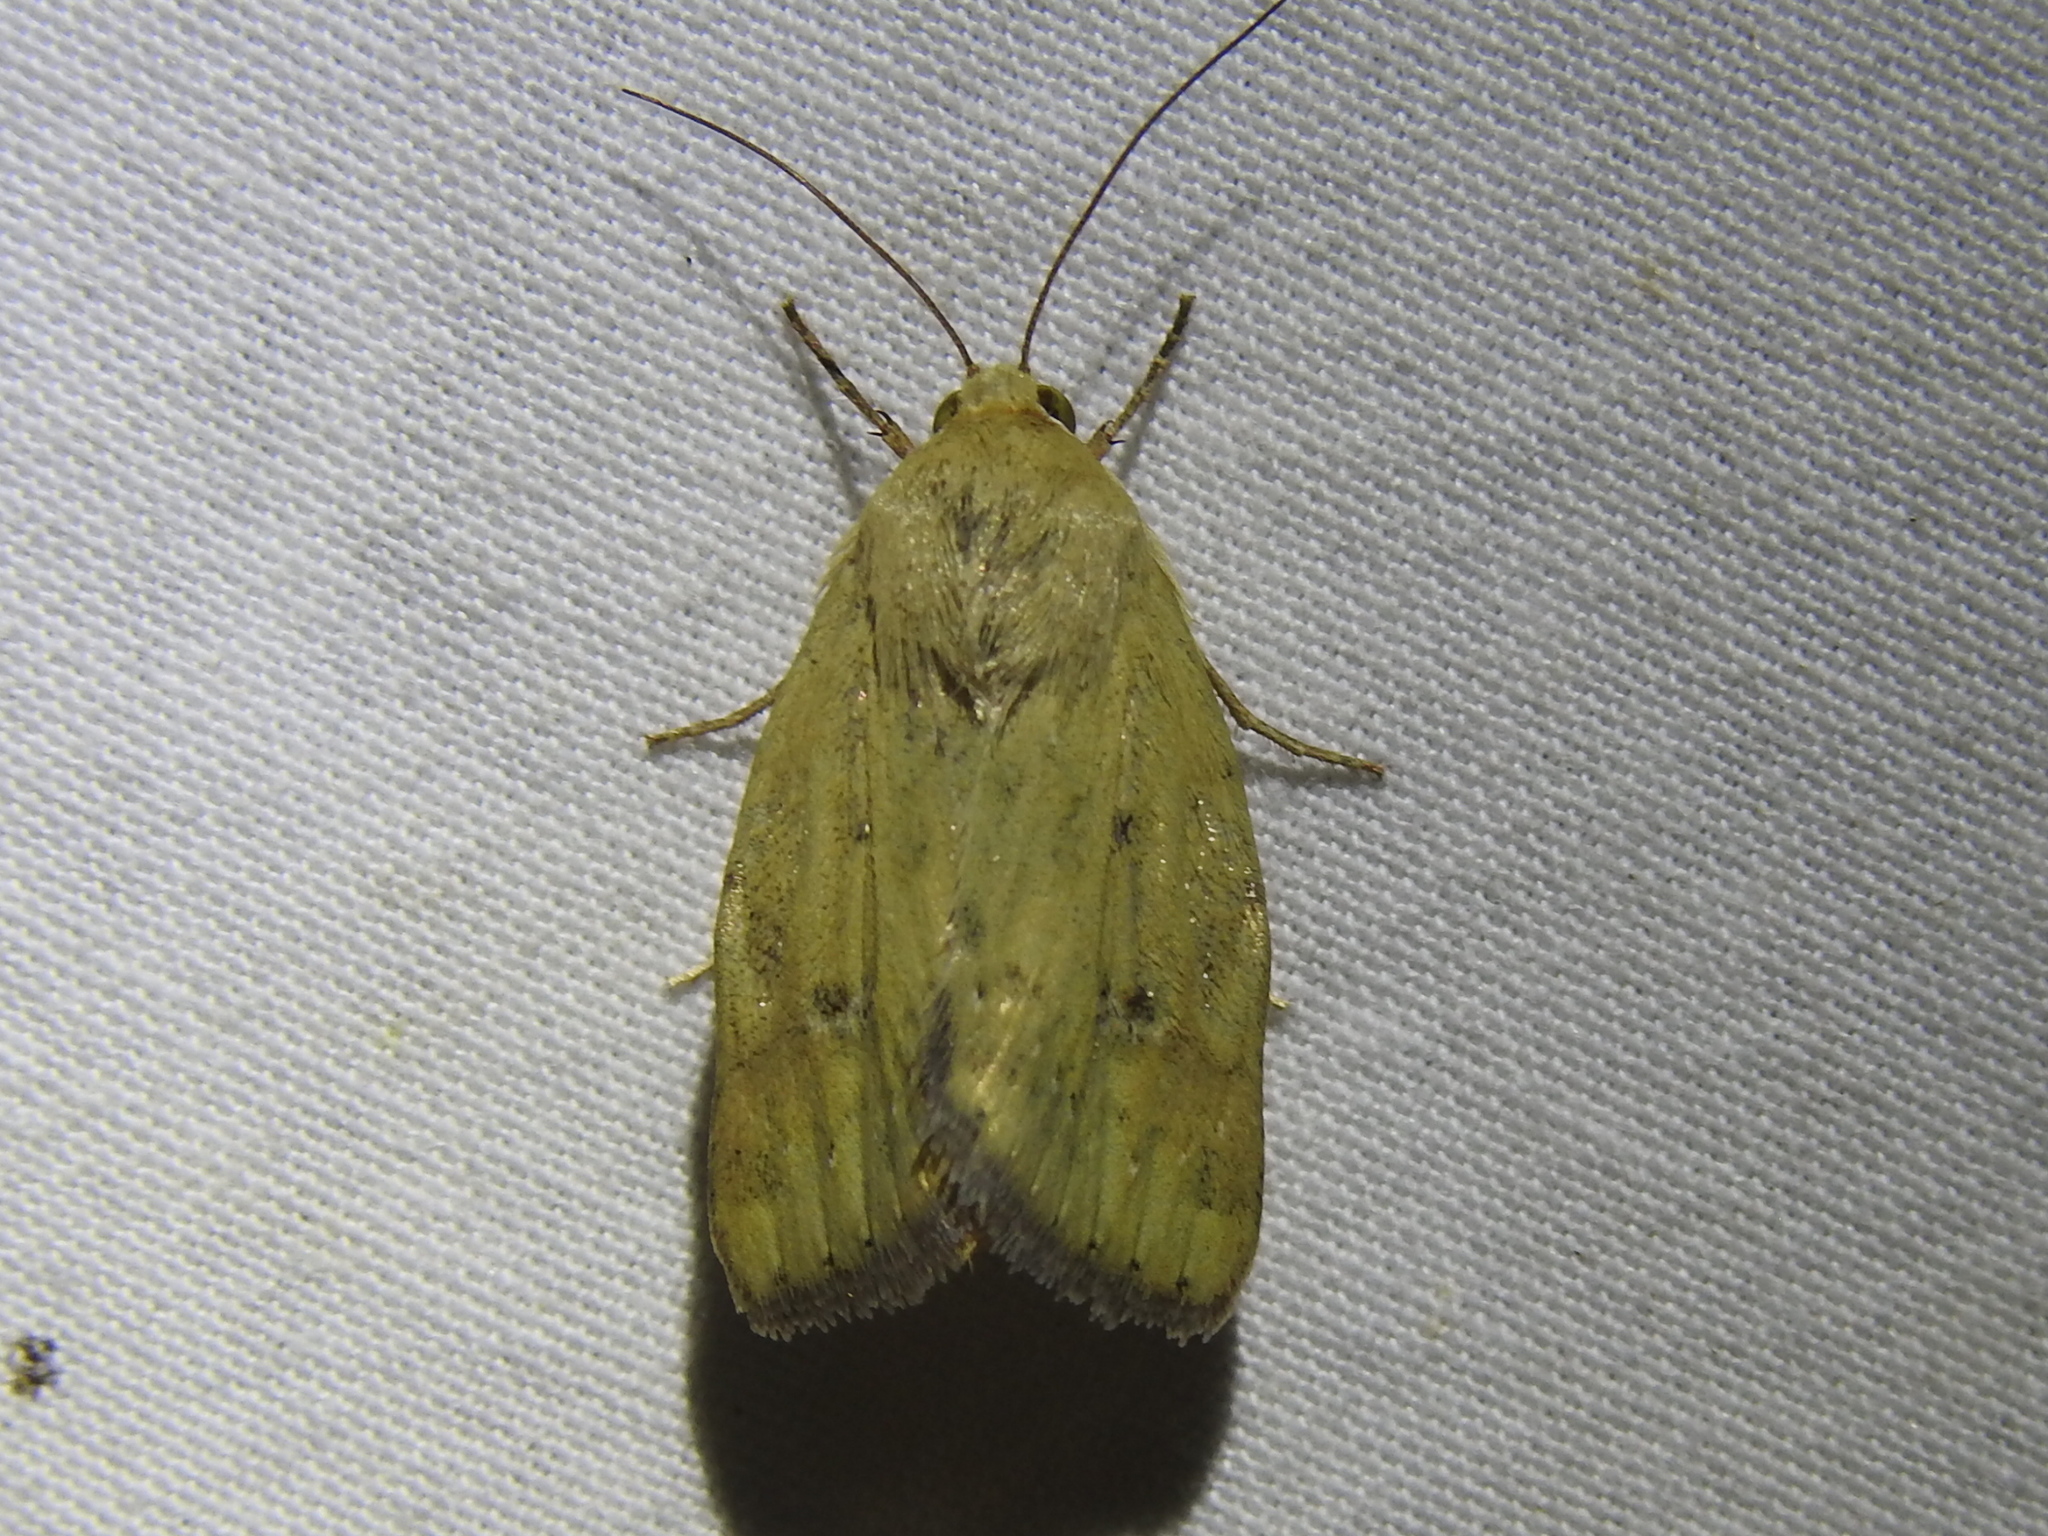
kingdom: Animalia
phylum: Arthropoda
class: Insecta
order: Lepidoptera
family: Noctuidae
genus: Heliocheilus
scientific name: Heliocheilus paradoxus
